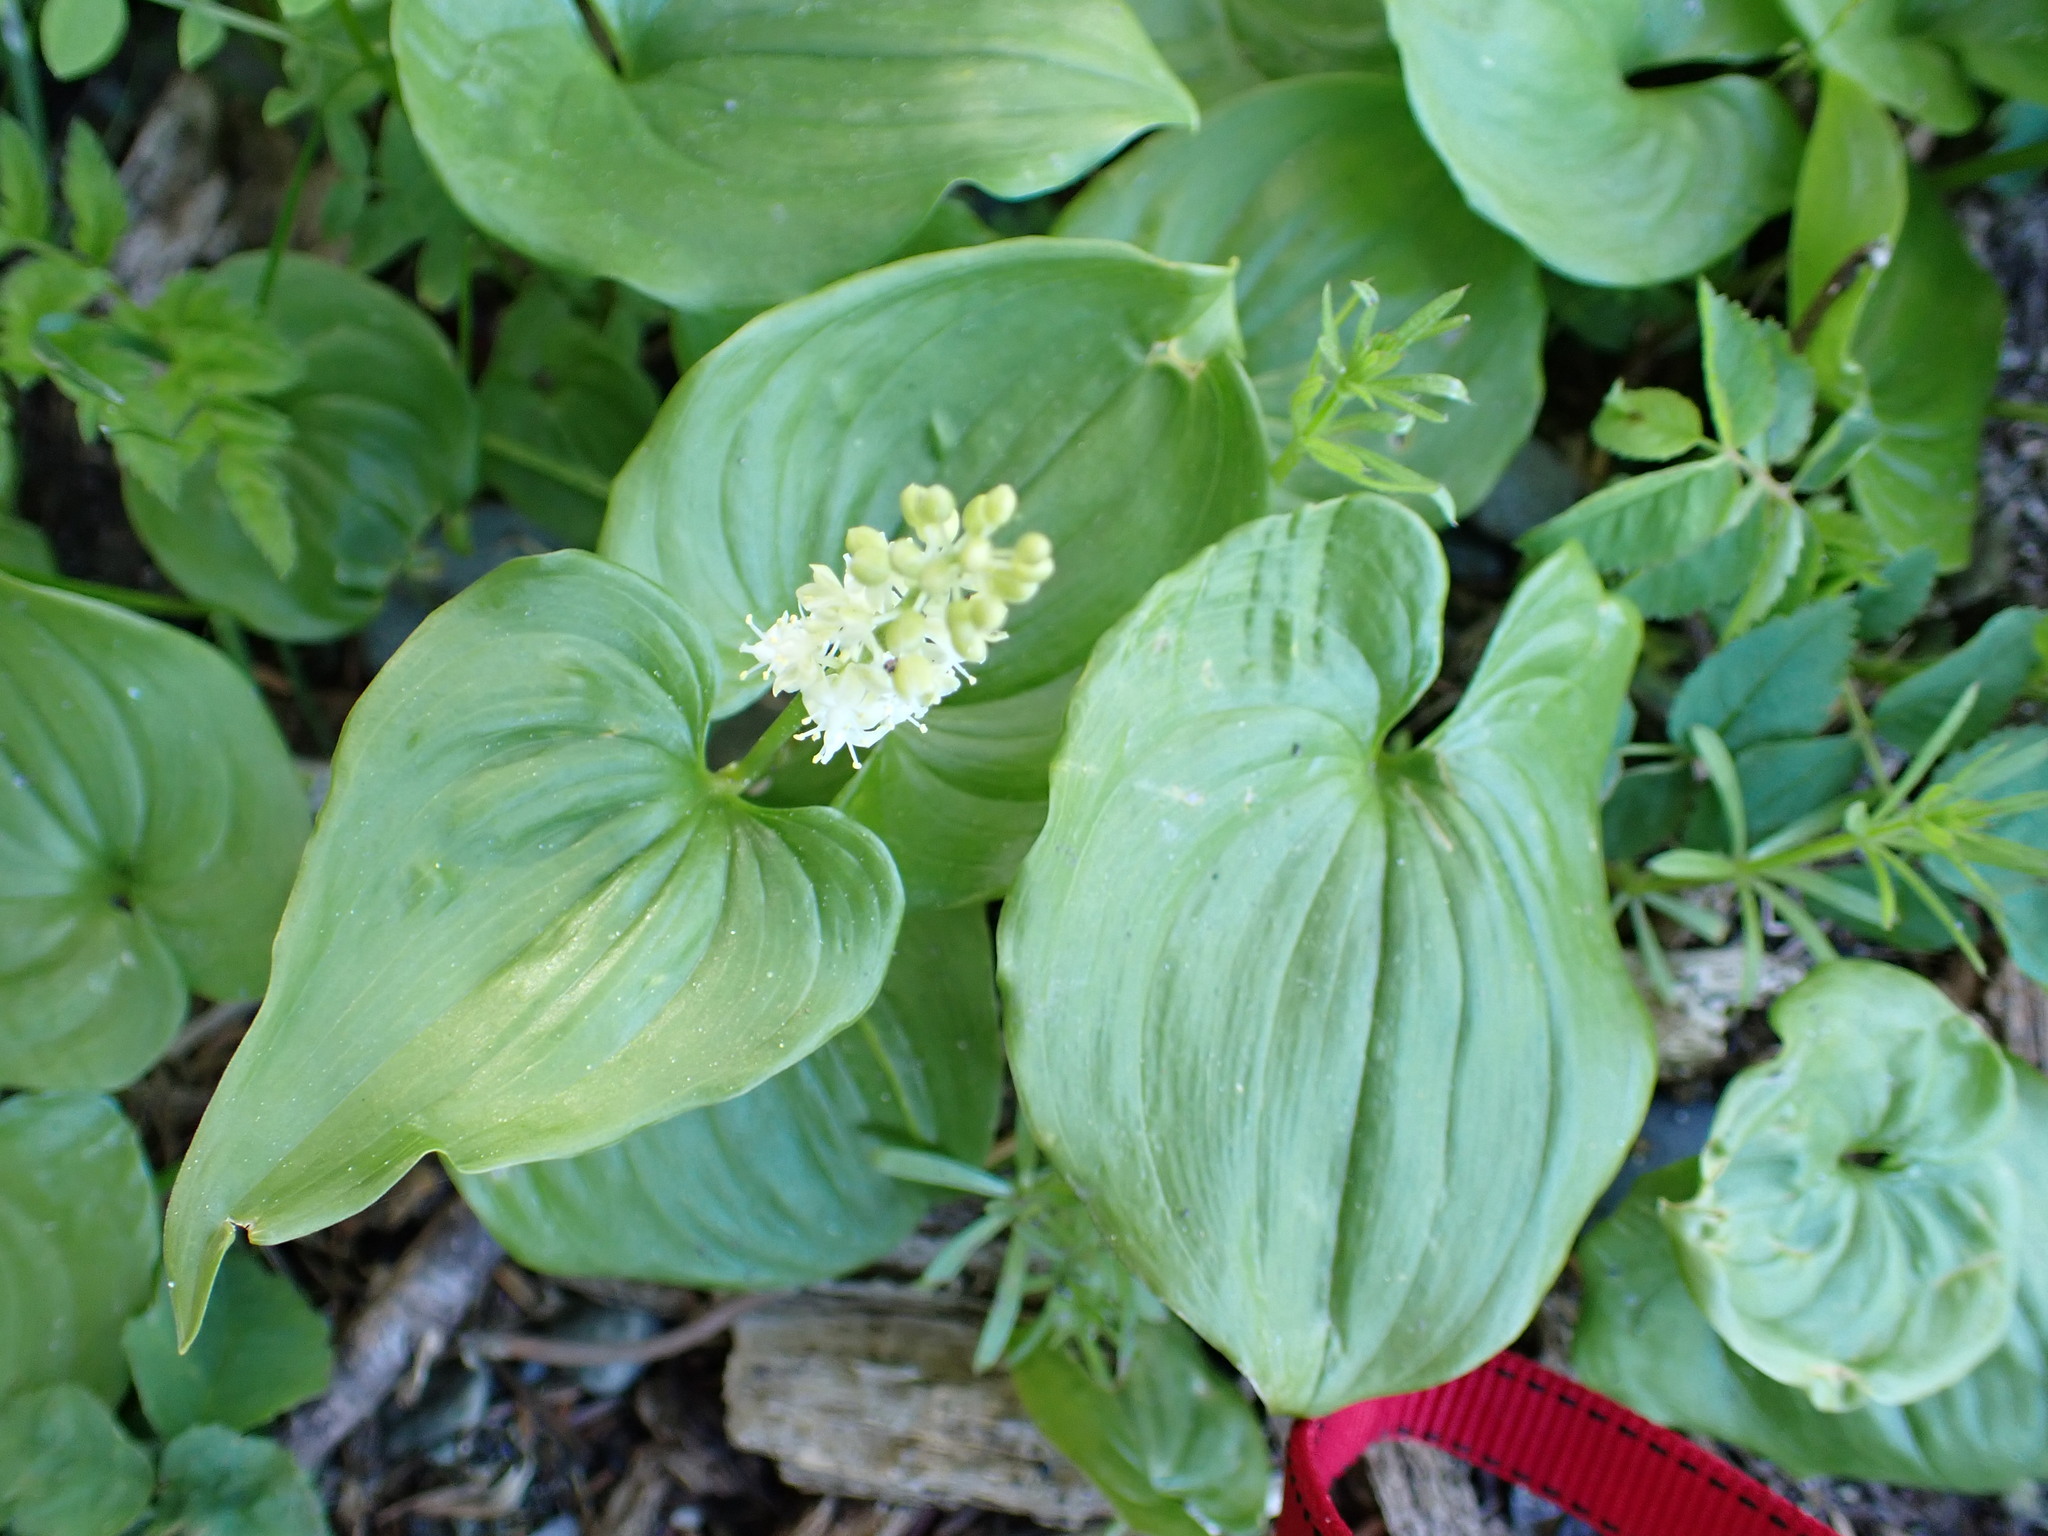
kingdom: Plantae
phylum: Tracheophyta
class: Liliopsida
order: Asparagales
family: Asparagaceae
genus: Maianthemum
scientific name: Maianthemum dilatatum
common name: False lily-of-the-valley
